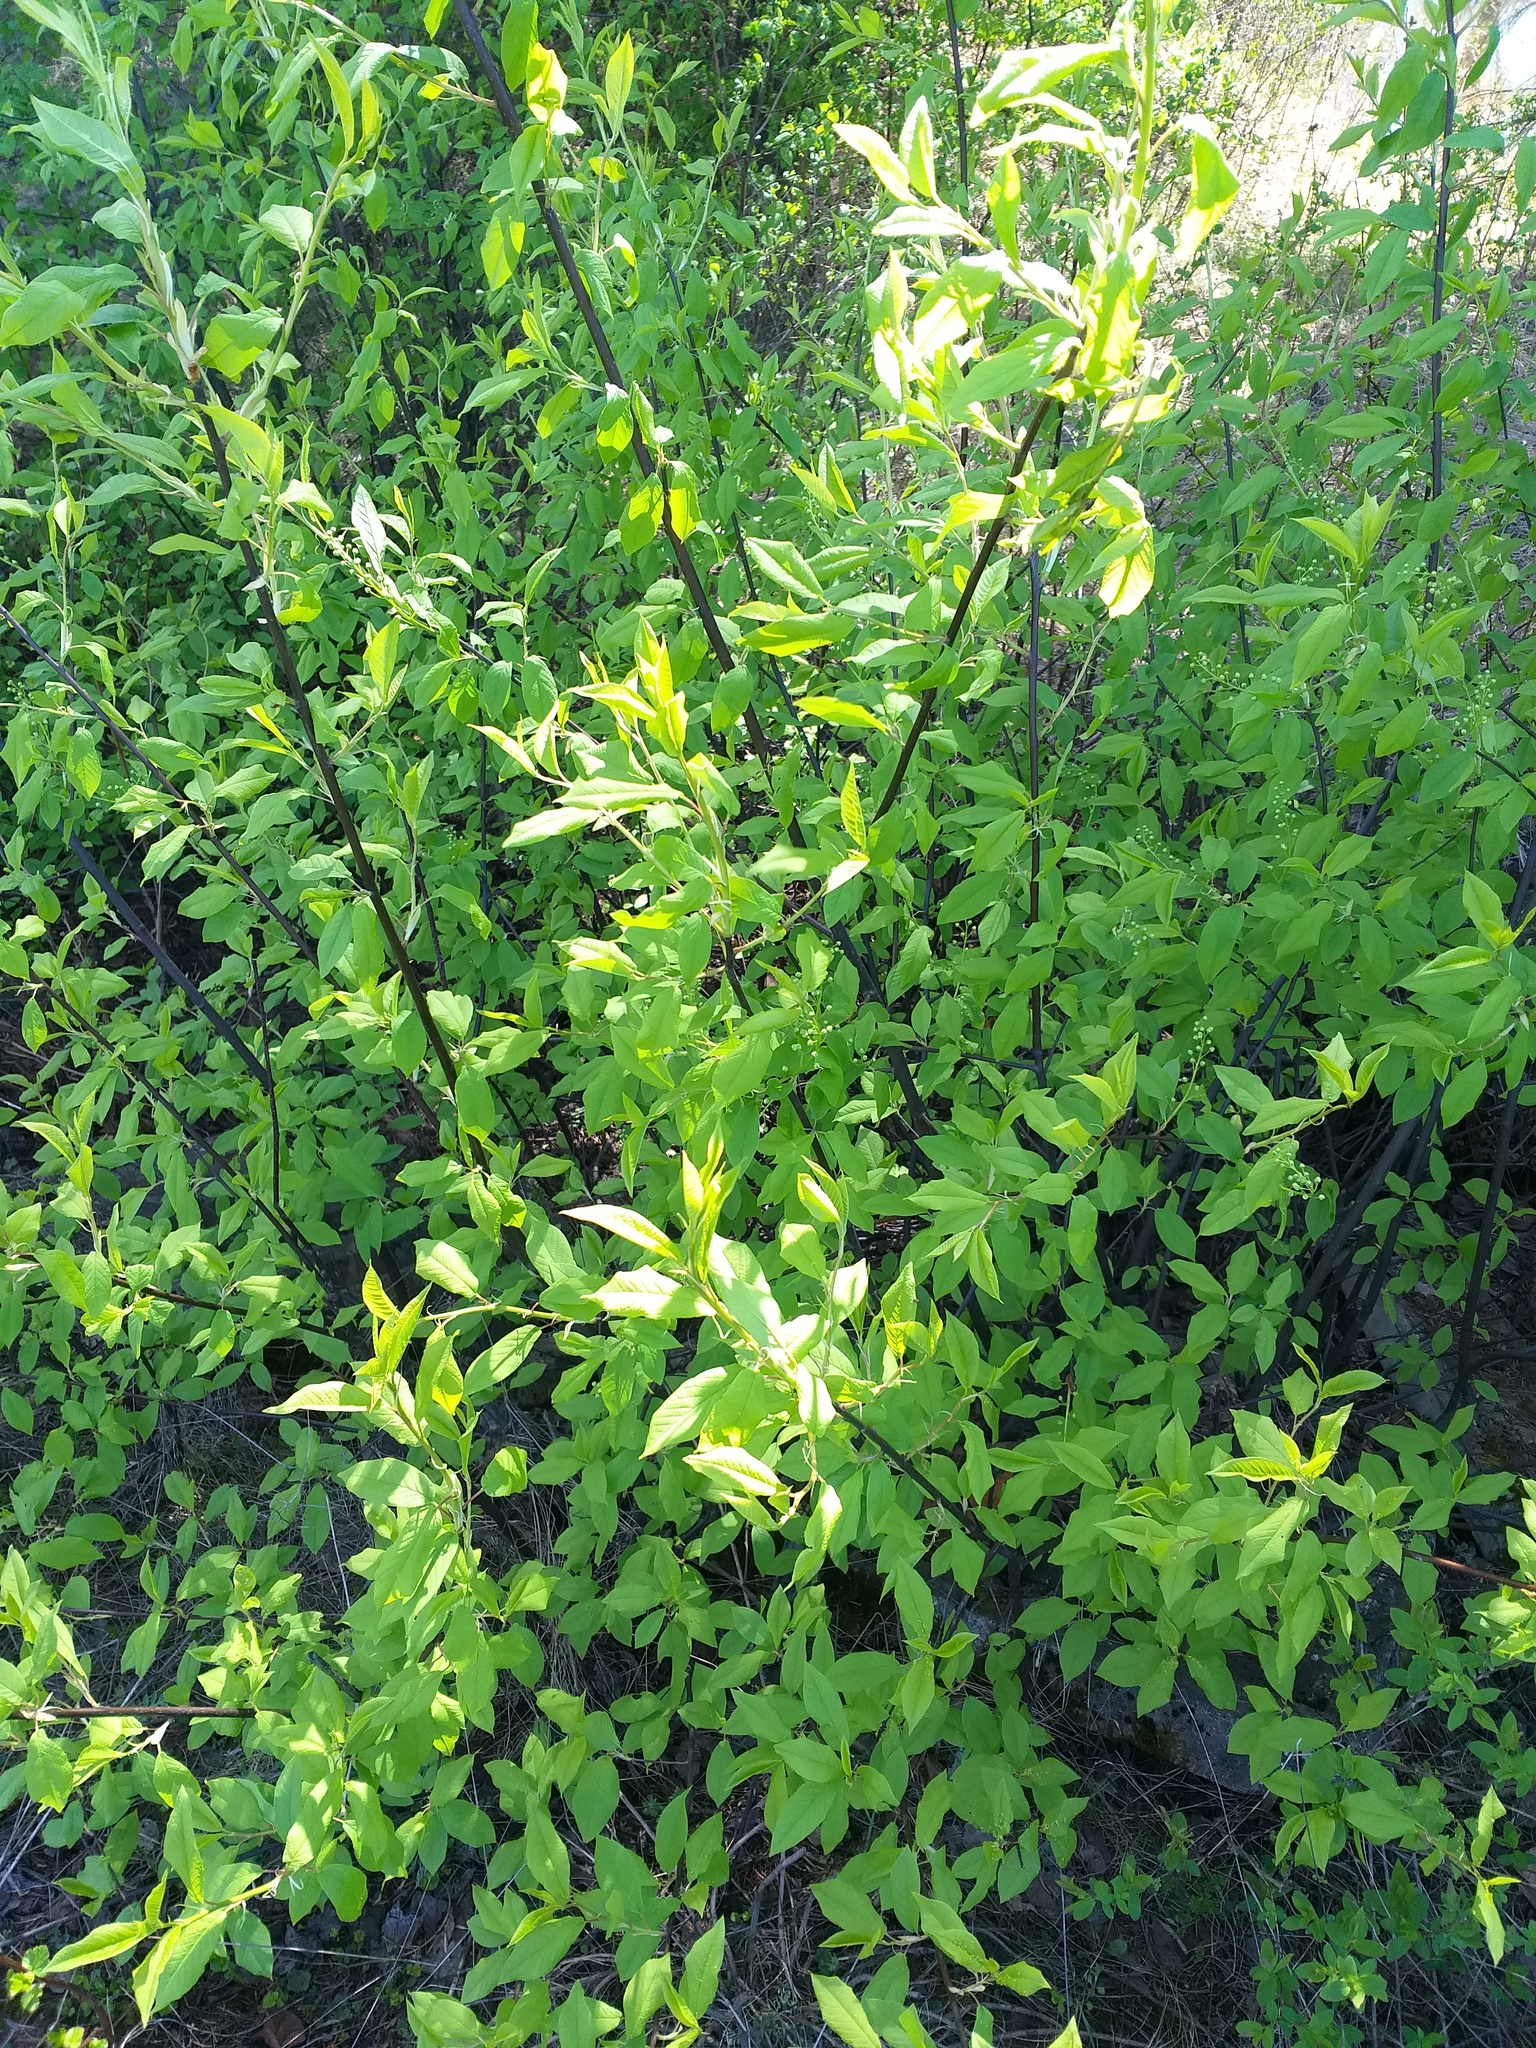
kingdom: Plantae
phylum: Tracheophyta
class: Magnoliopsida
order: Rosales
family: Rosaceae
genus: Prunus
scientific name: Prunus padus
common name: Bird cherry
